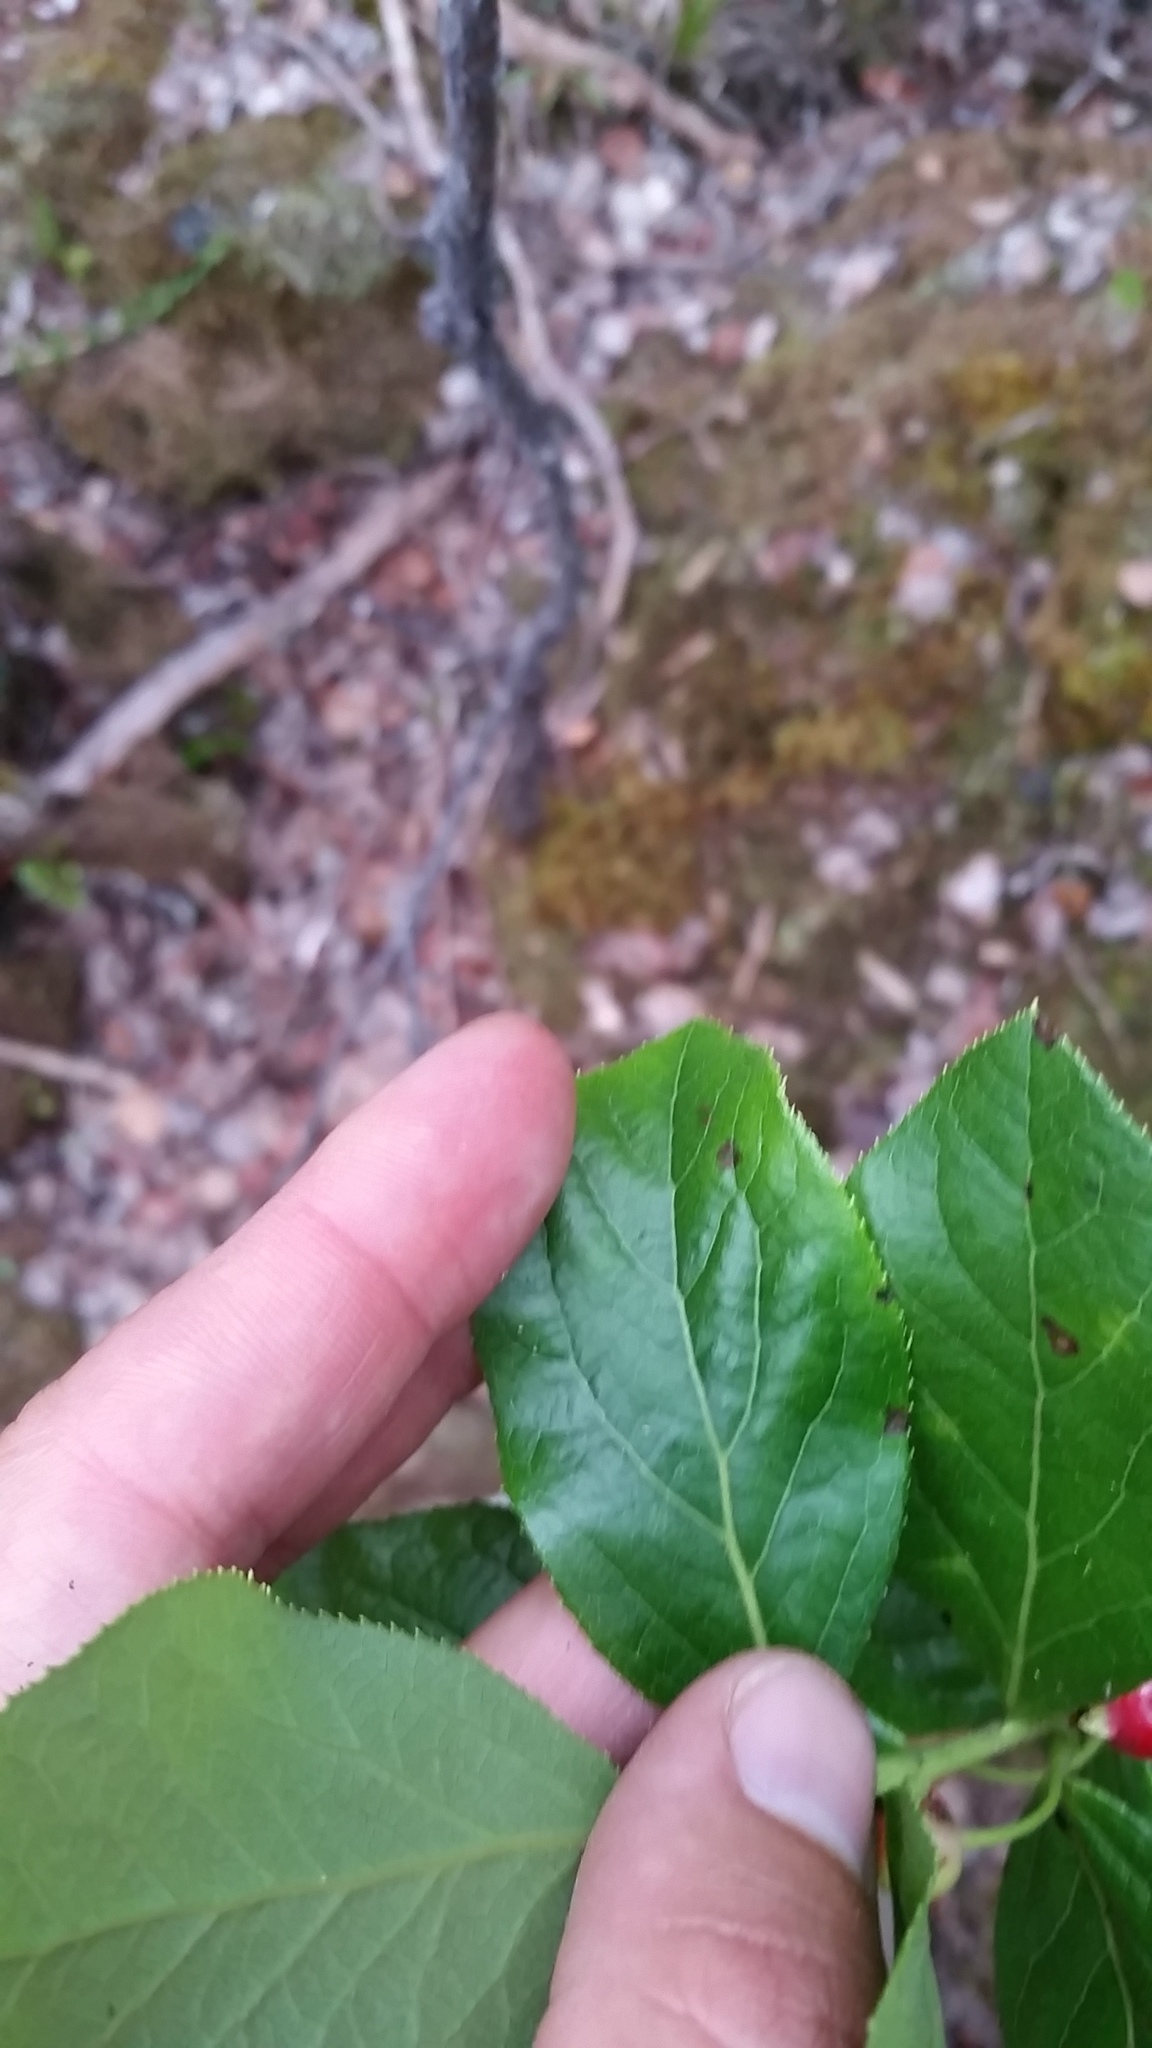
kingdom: Plantae
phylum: Tracheophyta
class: Magnoliopsida
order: Ericales
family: Ericaceae
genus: Vaccinium
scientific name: Vaccinium calycinum
